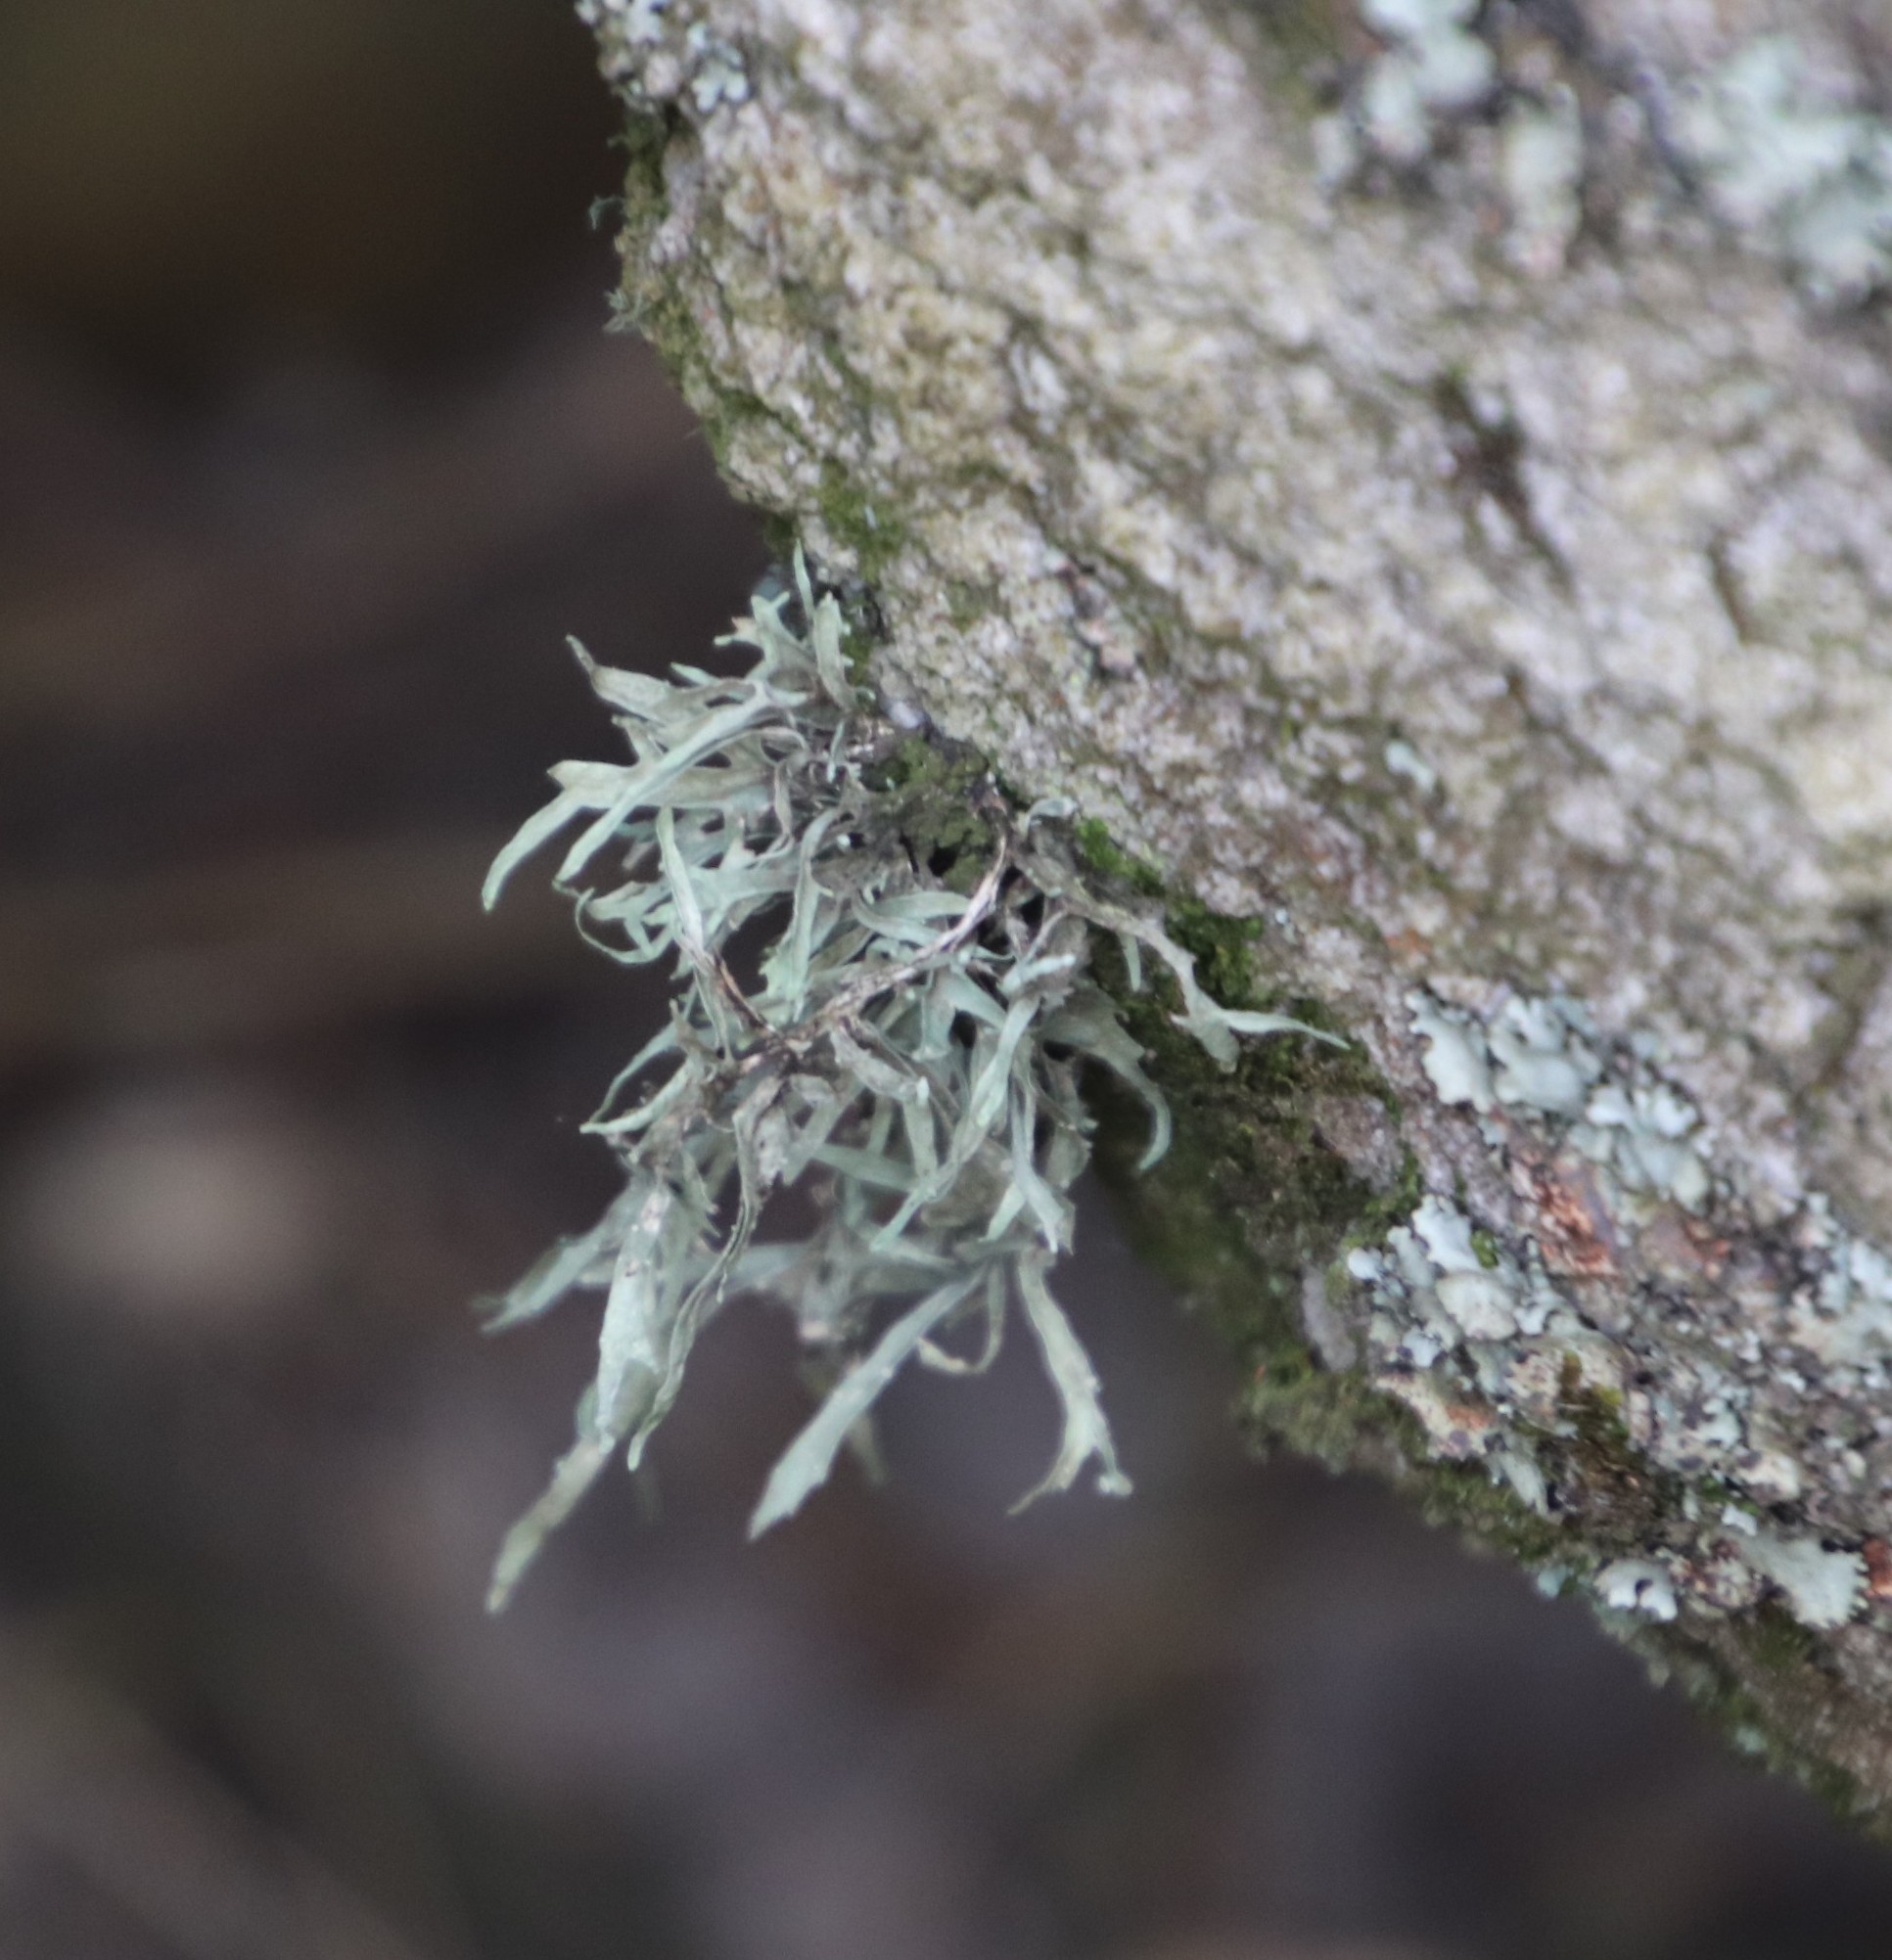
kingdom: Fungi
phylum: Ascomycota
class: Lecanoromycetes
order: Lecanorales
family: Ramalinaceae
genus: Ramalina
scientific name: Ramalina celastri
